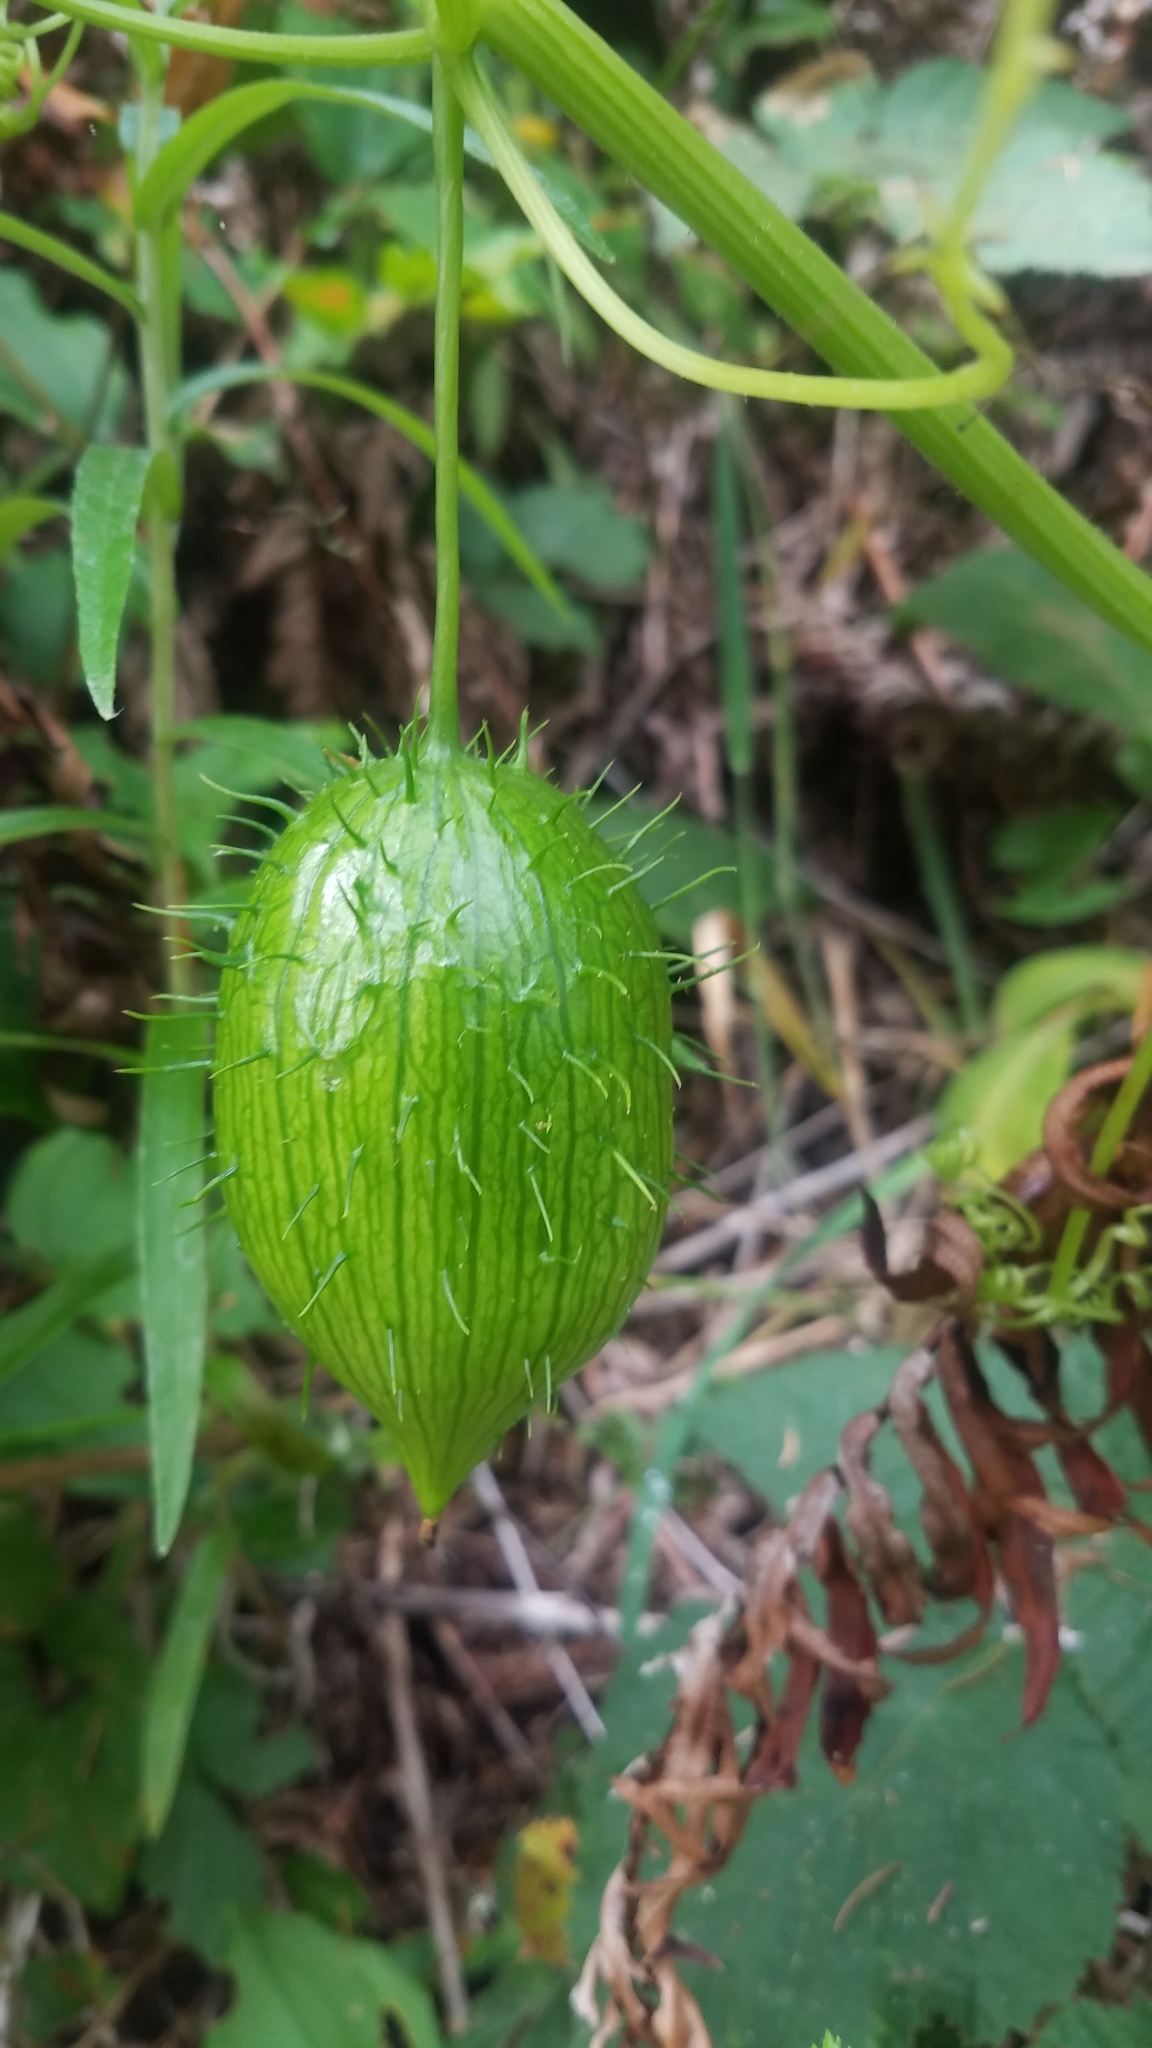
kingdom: Plantae
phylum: Tracheophyta
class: Magnoliopsida
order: Cucurbitales
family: Cucurbitaceae
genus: Marah
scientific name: Marah oregana
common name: Coastal manroot
